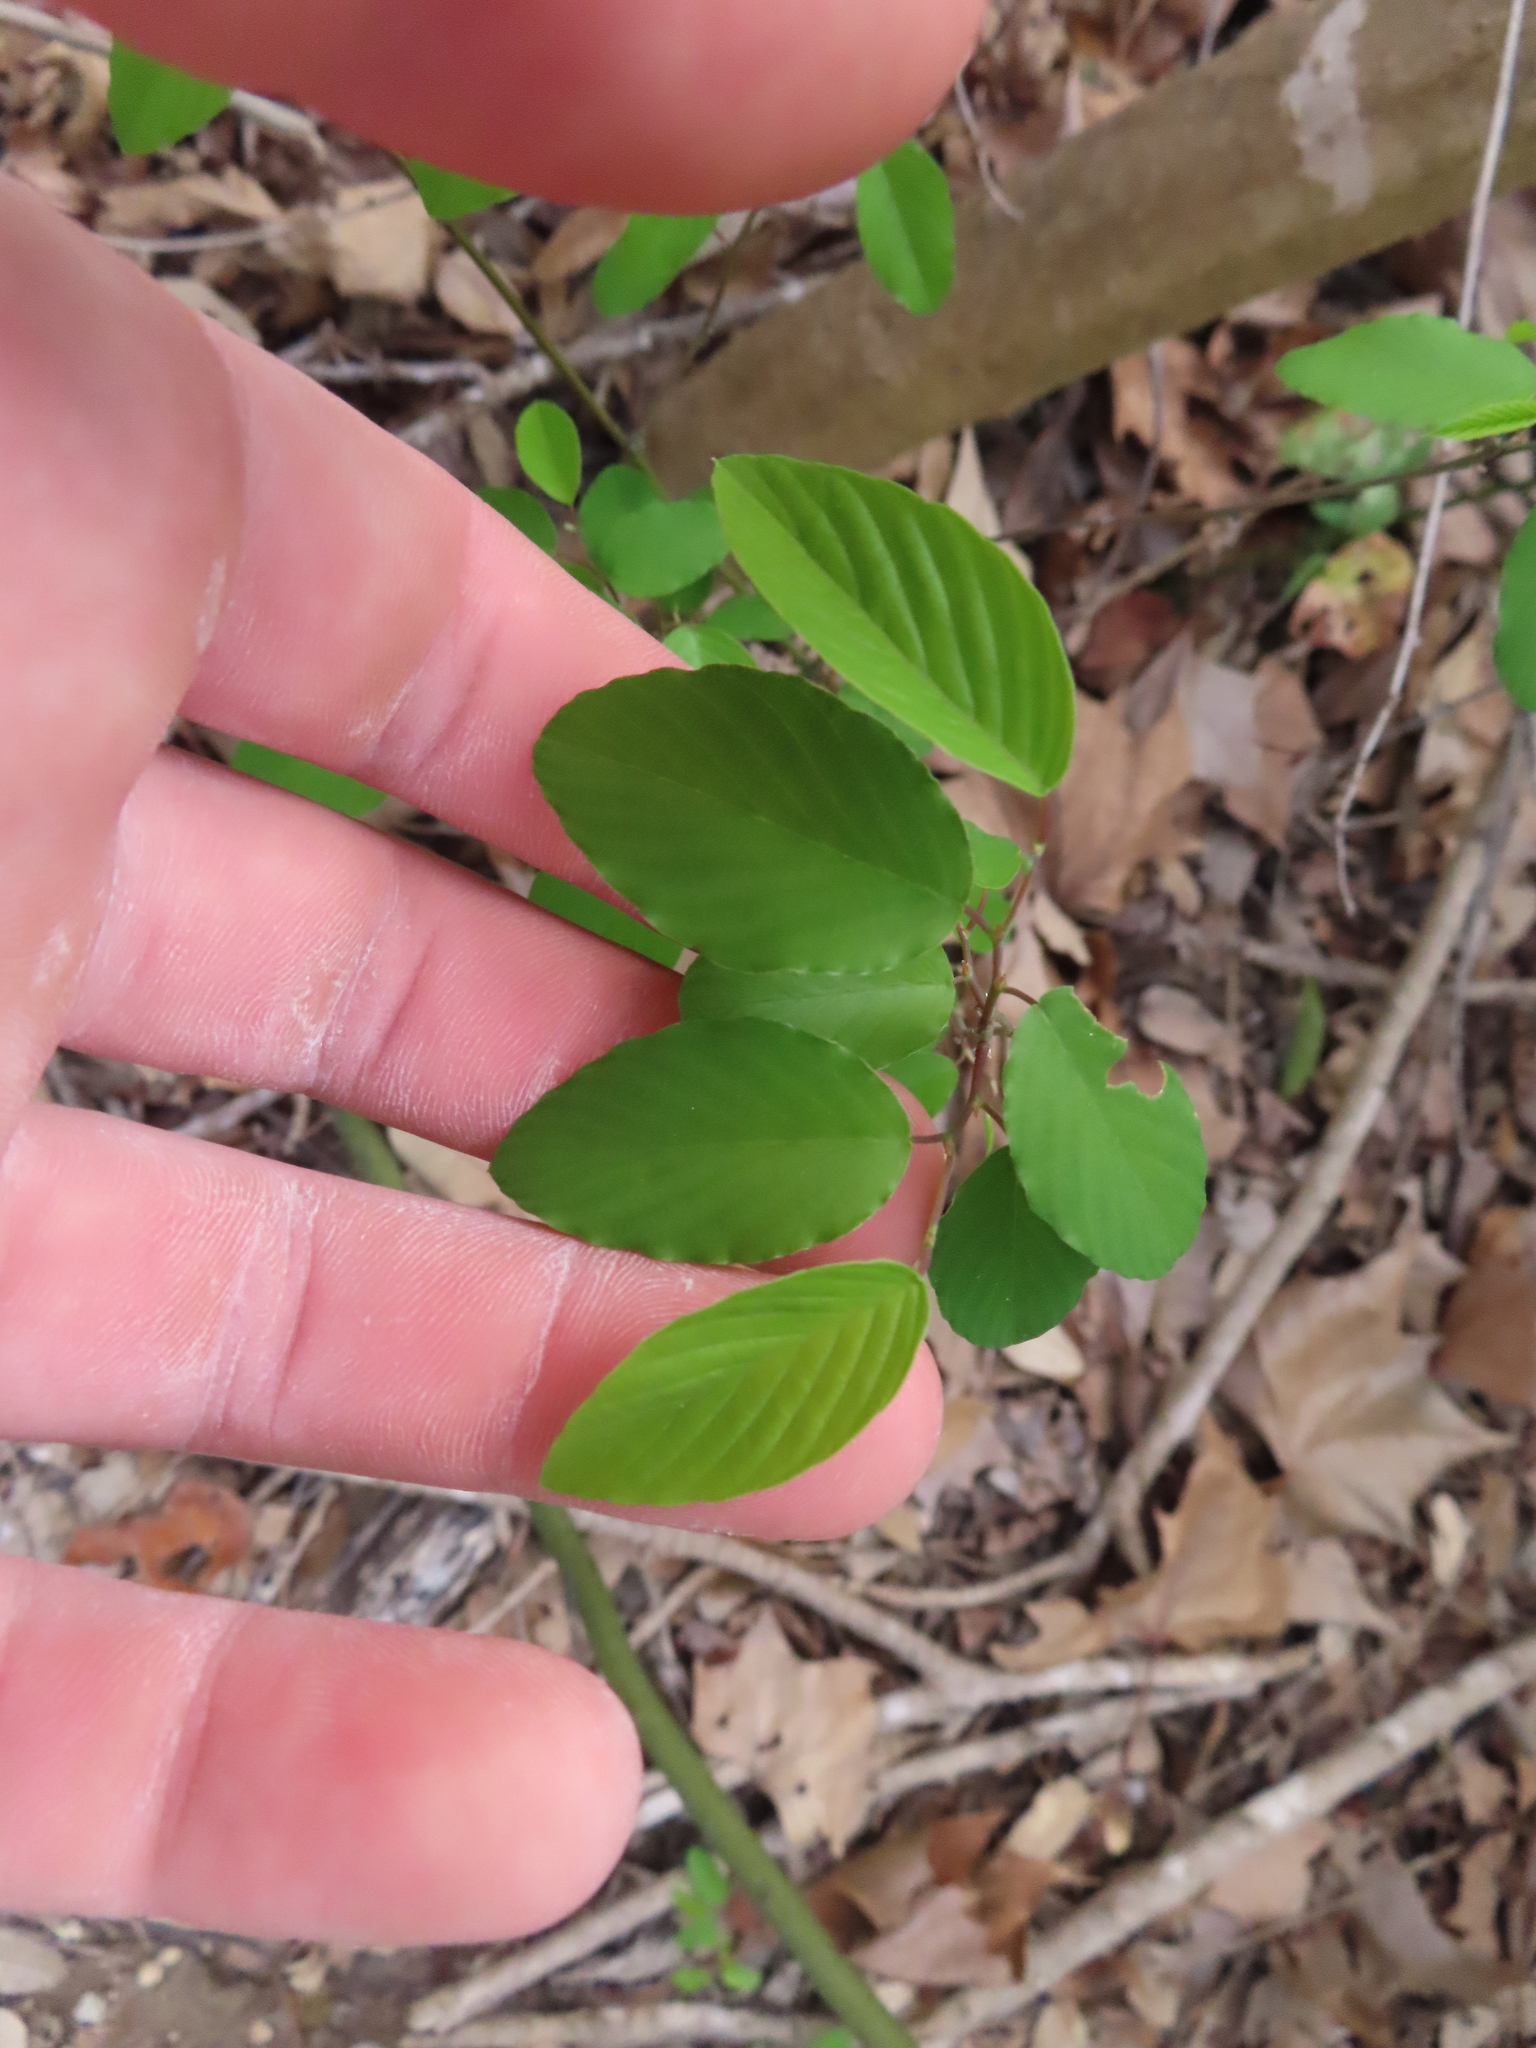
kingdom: Plantae
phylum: Tracheophyta
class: Magnoliopsida
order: Rosales
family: Rhamnaceae
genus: Berchemia
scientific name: Berchemia scandens
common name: Supplejack
